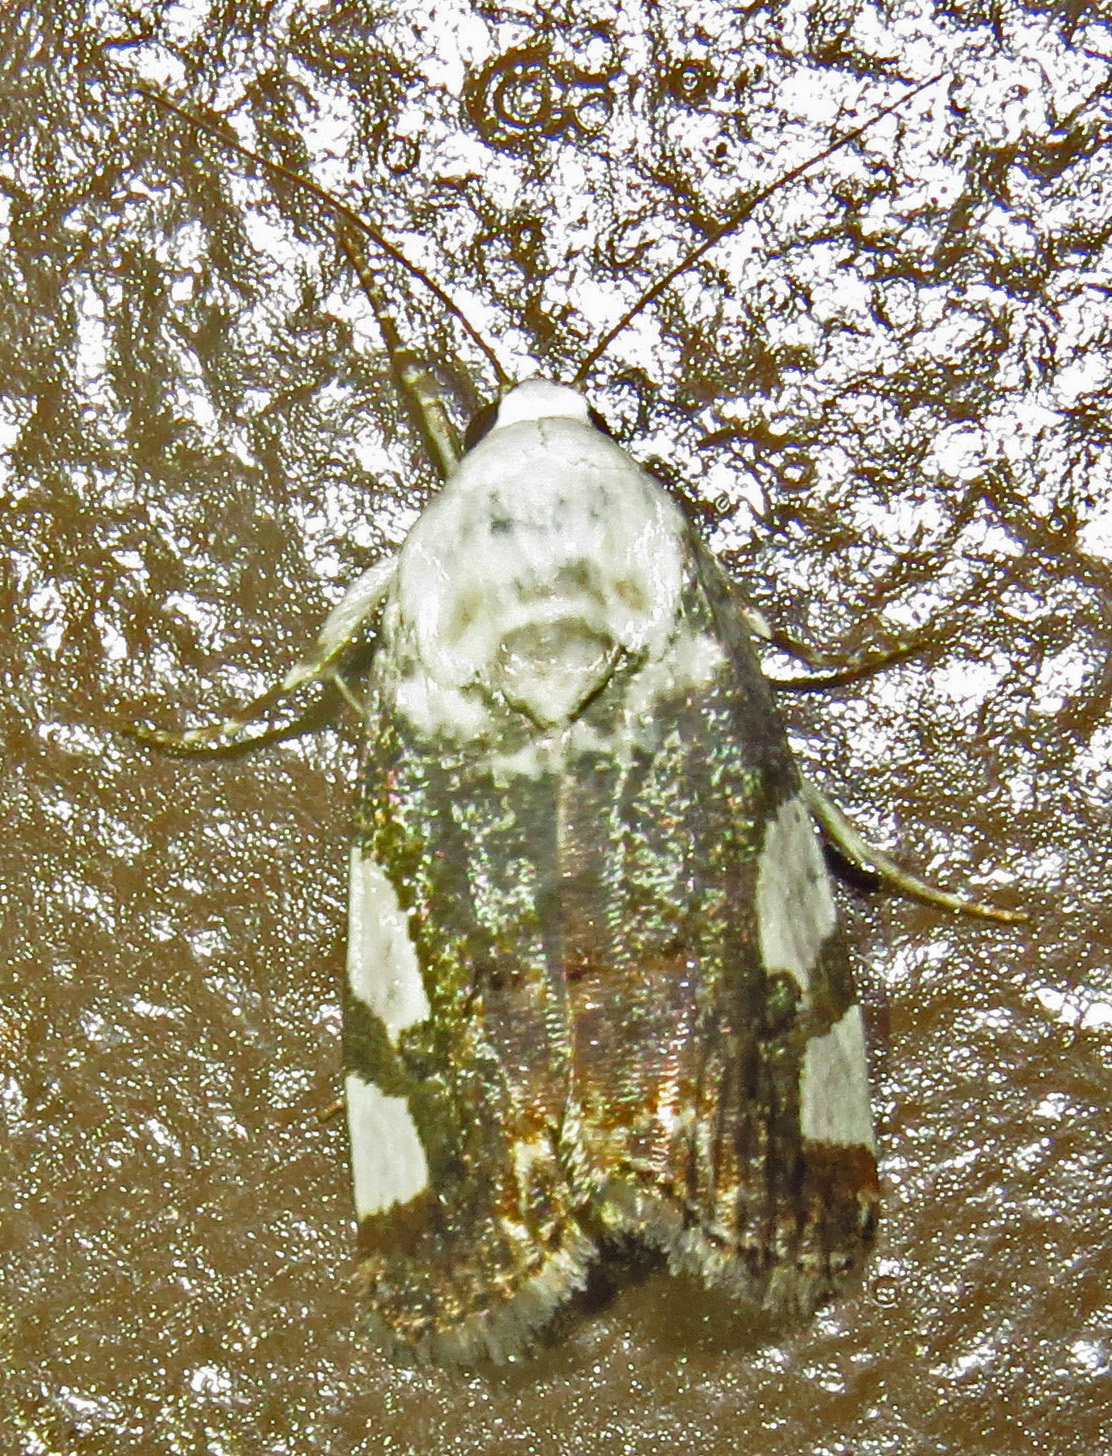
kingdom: Animalia
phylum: Arthropoda
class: Insecta
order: Lepidoptera
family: Noctuidae
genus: Acontia
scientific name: Acontia quadriplaga
